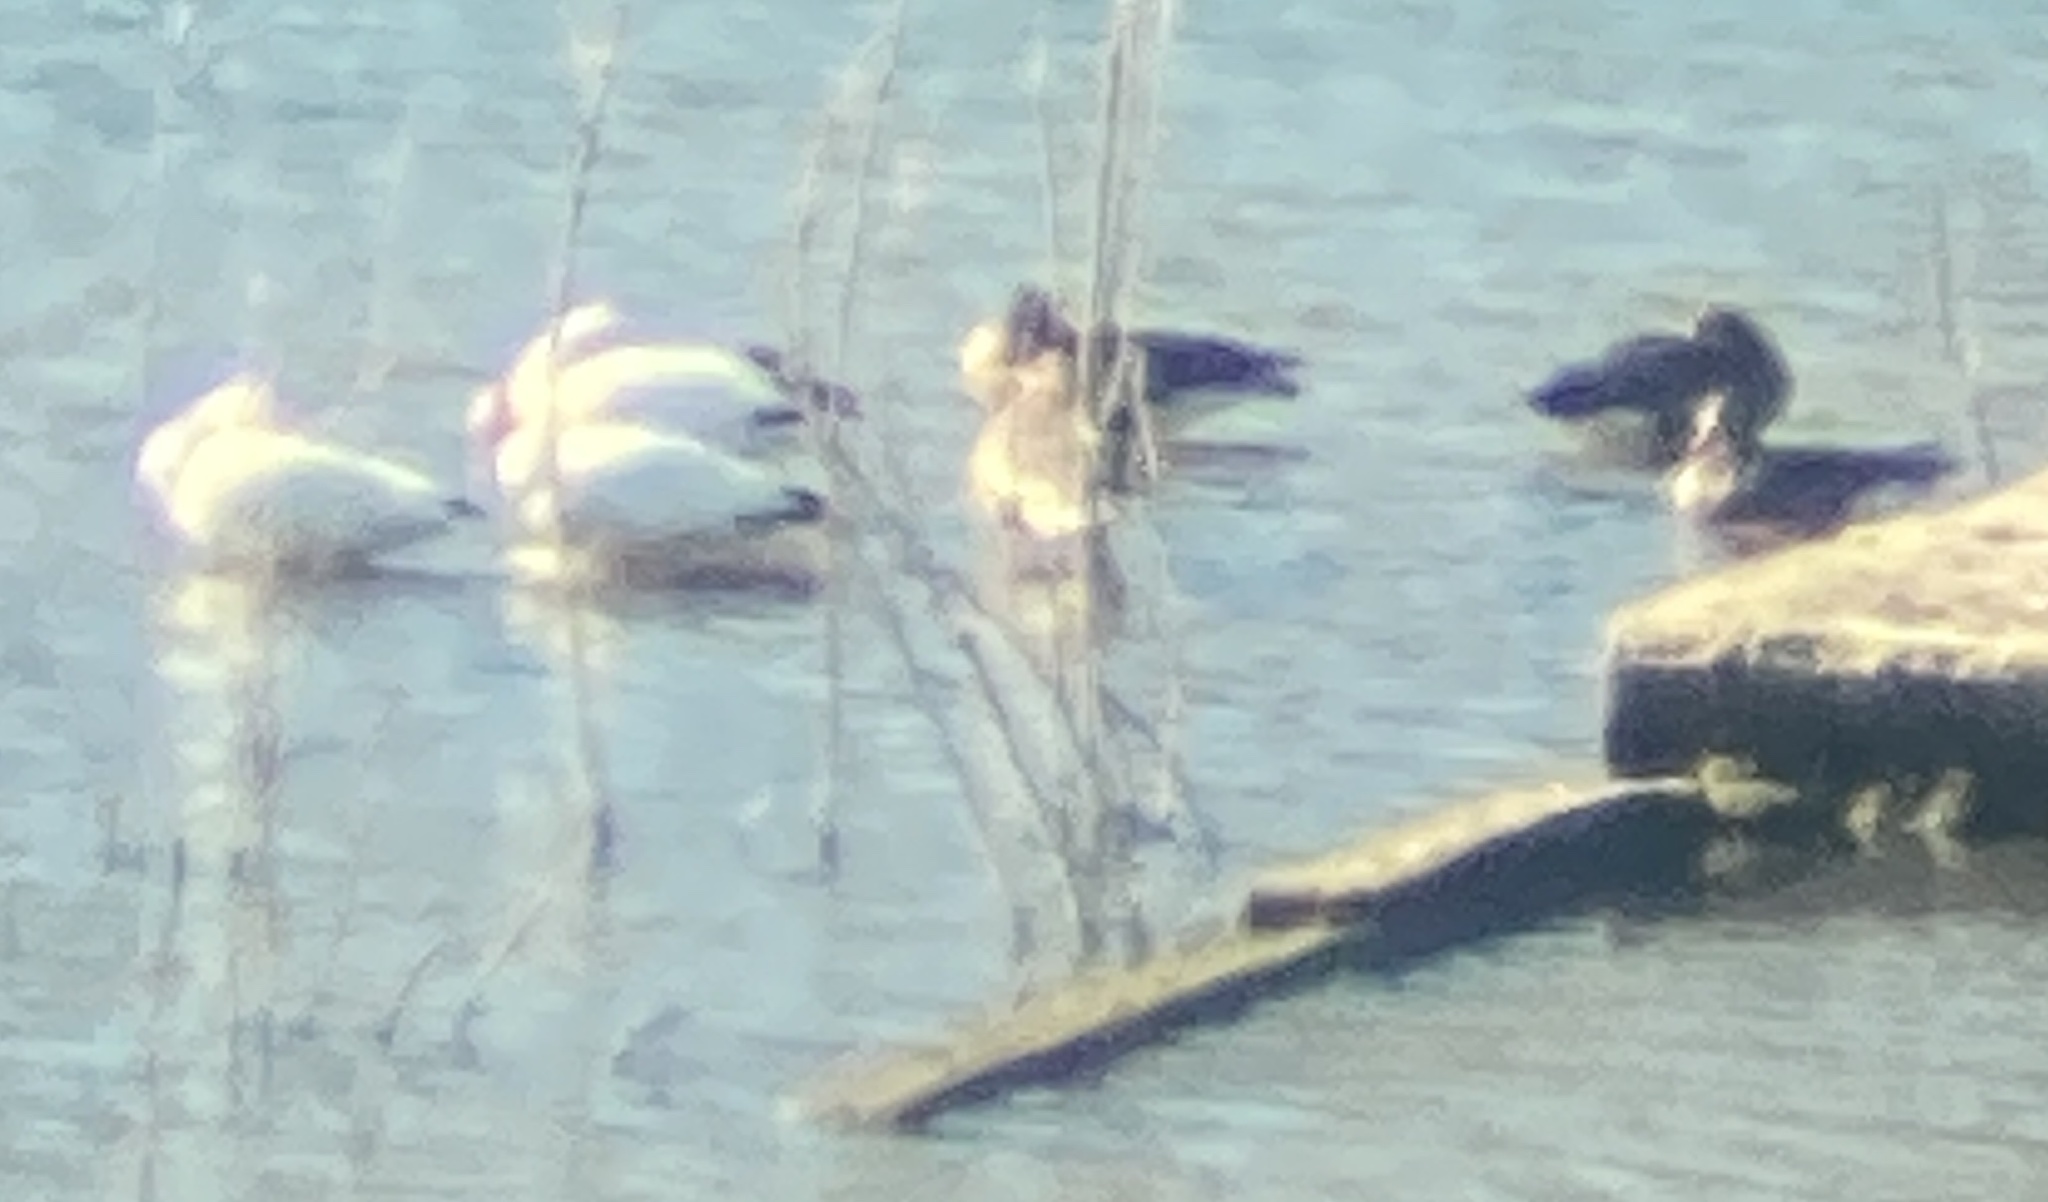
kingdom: Animalia
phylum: Chordata
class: Aves
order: Anseriformes
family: Anatidae
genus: Anser
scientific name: Anser caerulescens
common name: Snow goose
